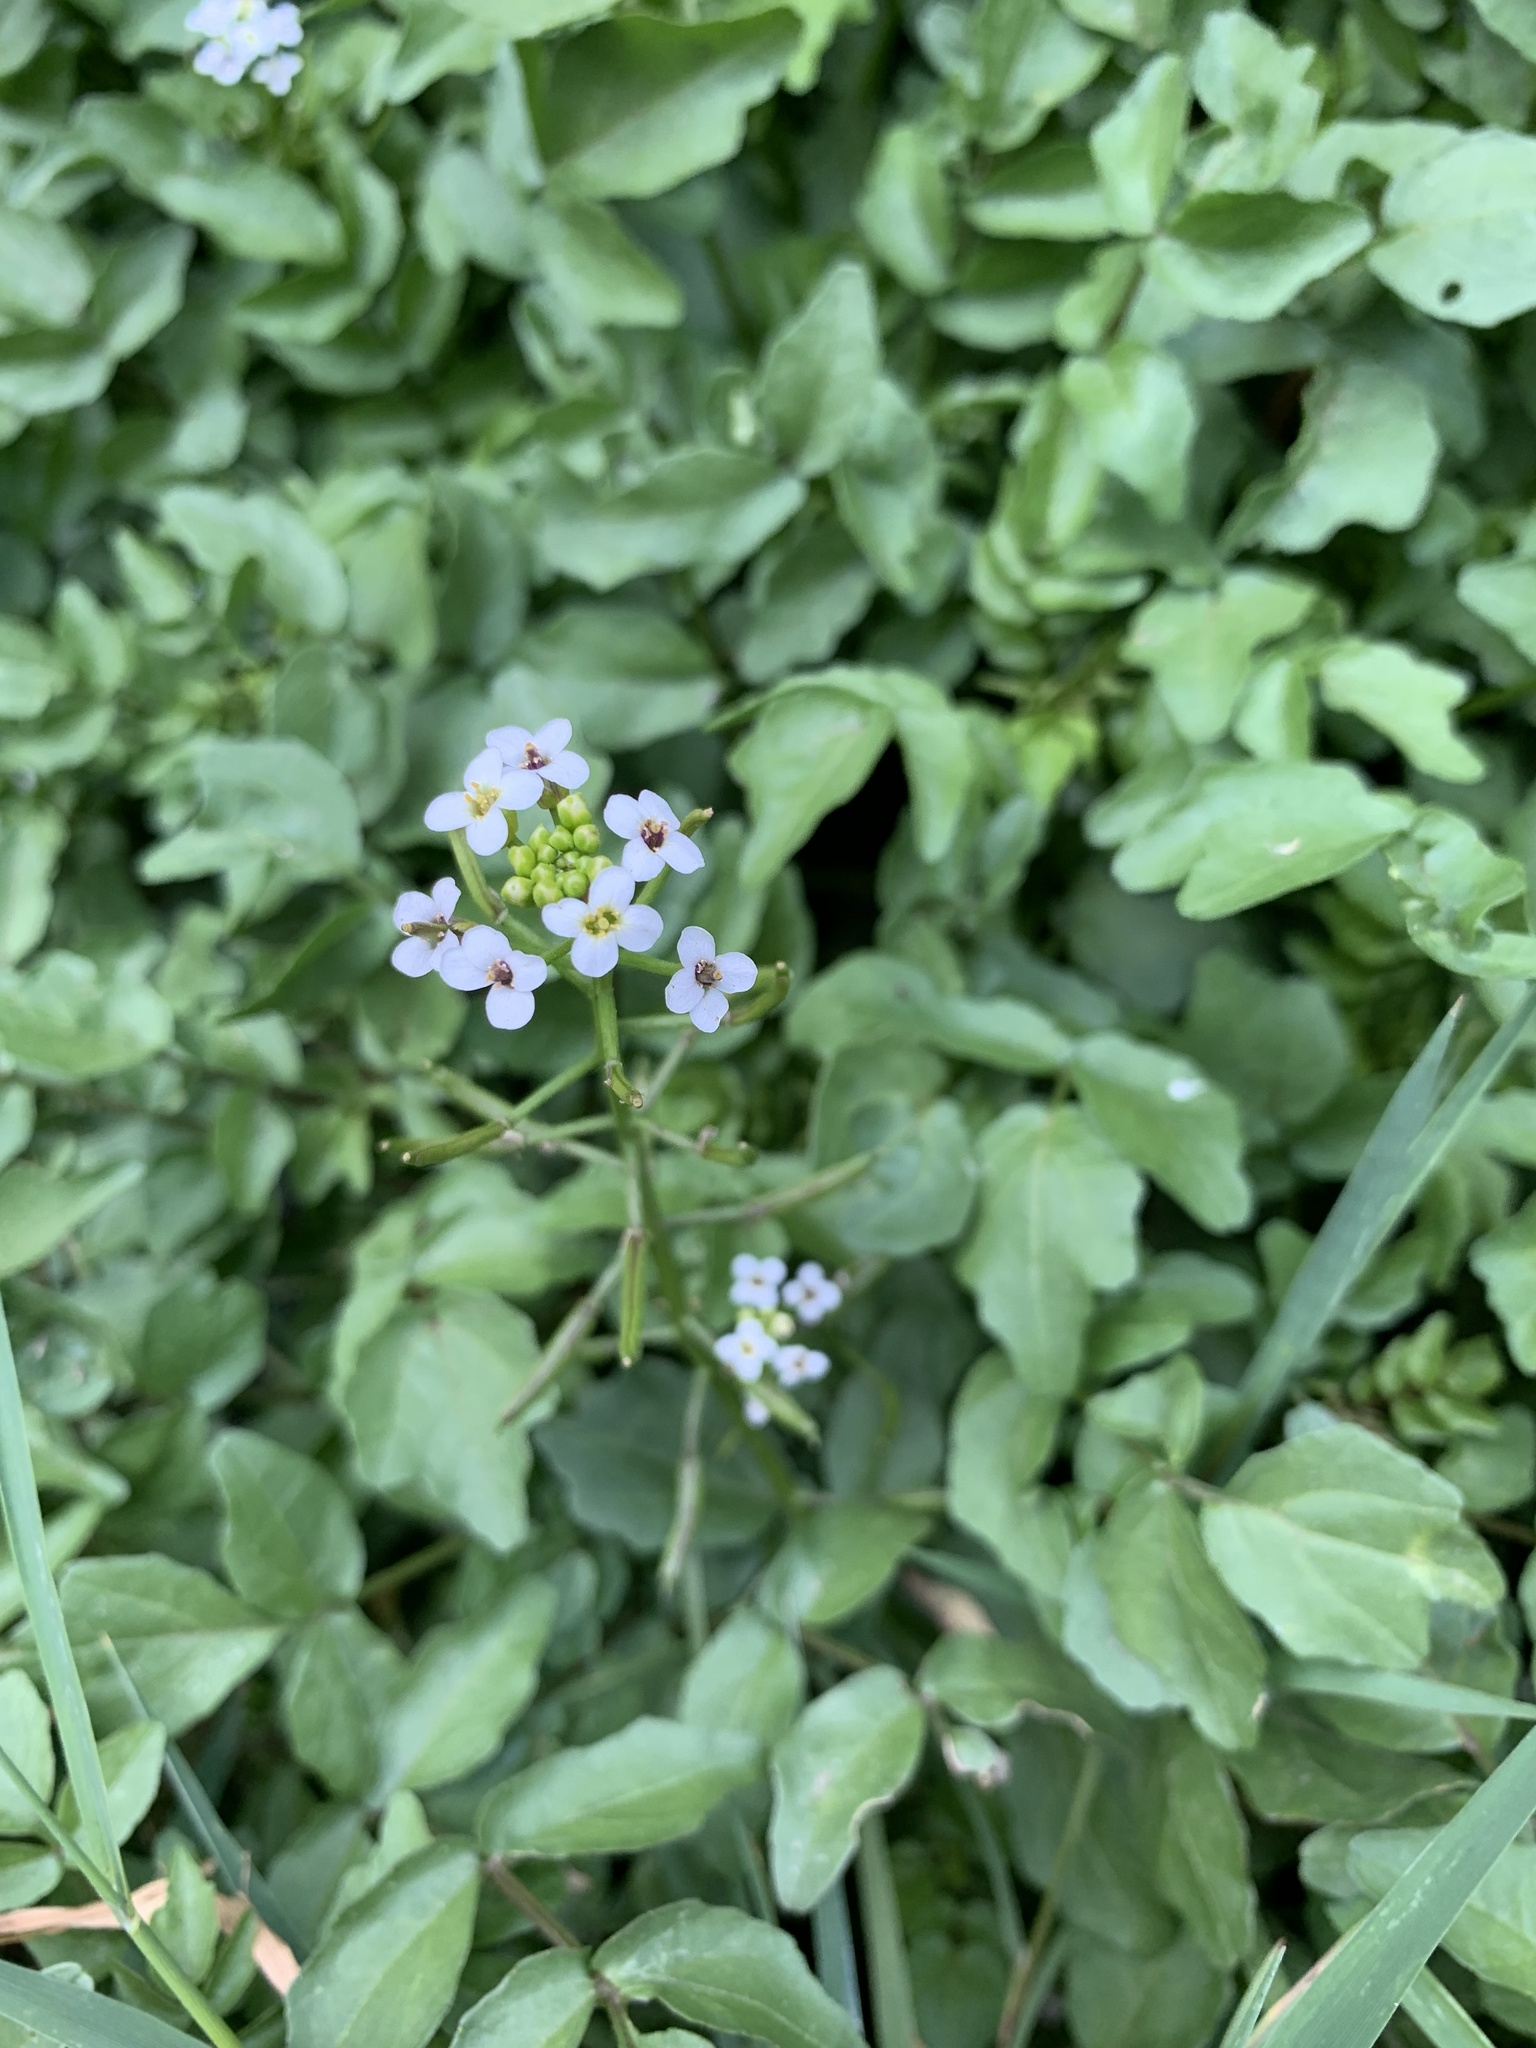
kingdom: Plantae
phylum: Tracheophyta
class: Magnoliopsida
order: Brassicales
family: Brassicaceae
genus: Nasturtium
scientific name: Nasturtium officinale
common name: Watercress
